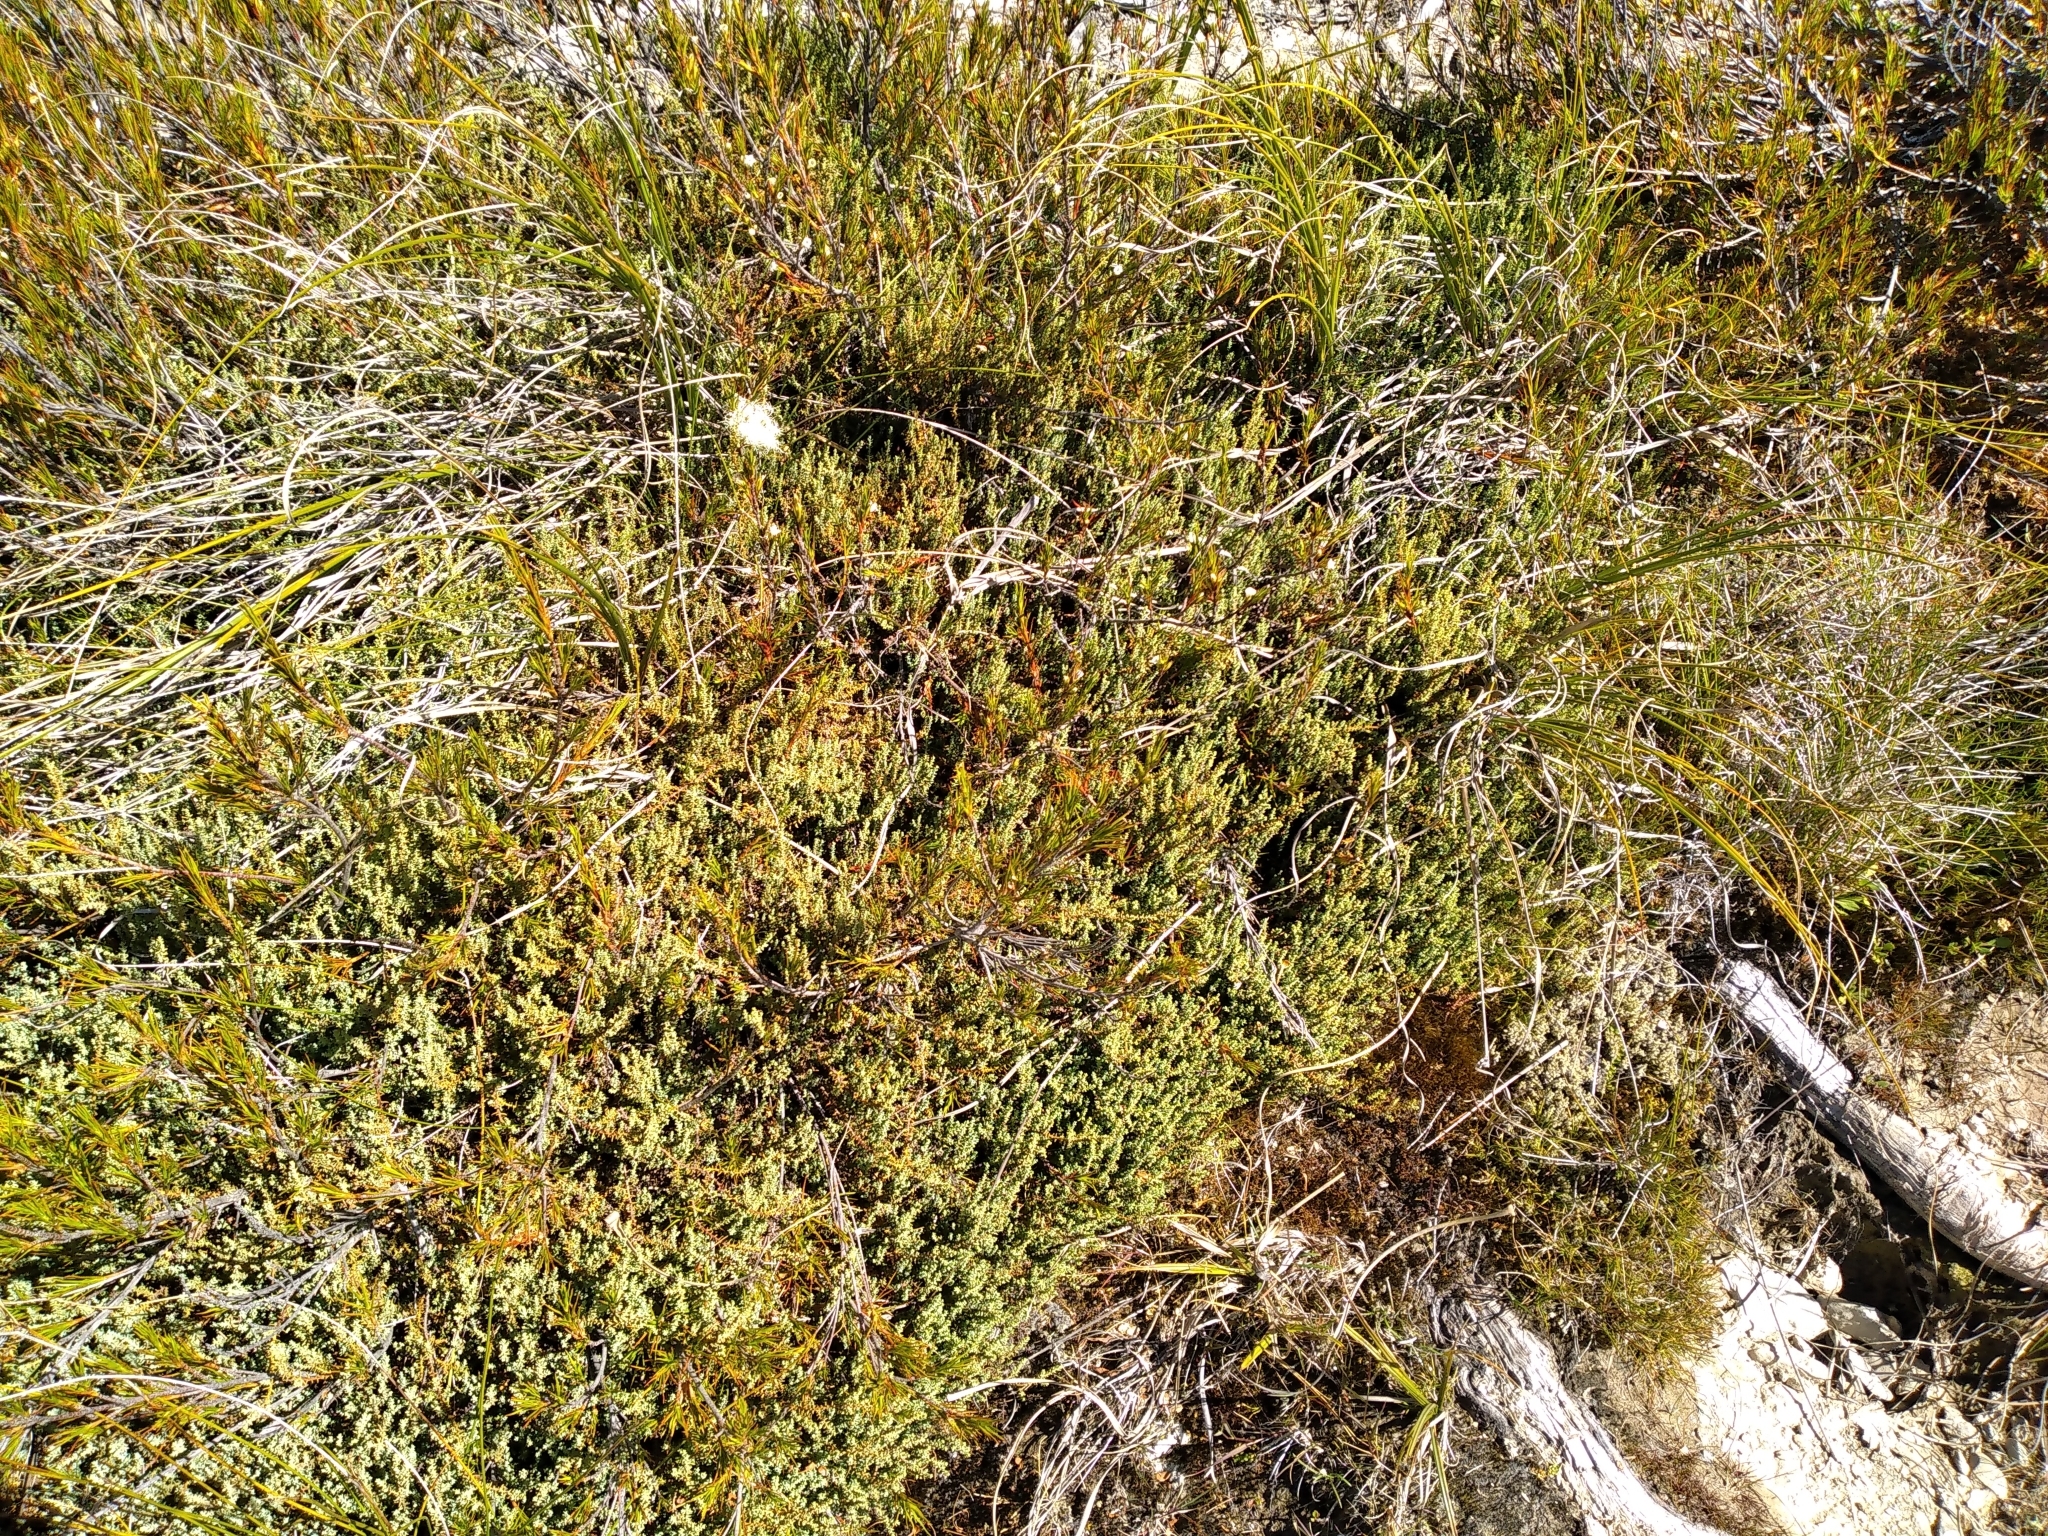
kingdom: Plantae
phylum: Tracheophyta
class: Pinopsida
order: Pinales
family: Podocarpaceae
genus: Lepidothamnus
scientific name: Lepidothamnus laxifolius
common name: Pygmy pine
